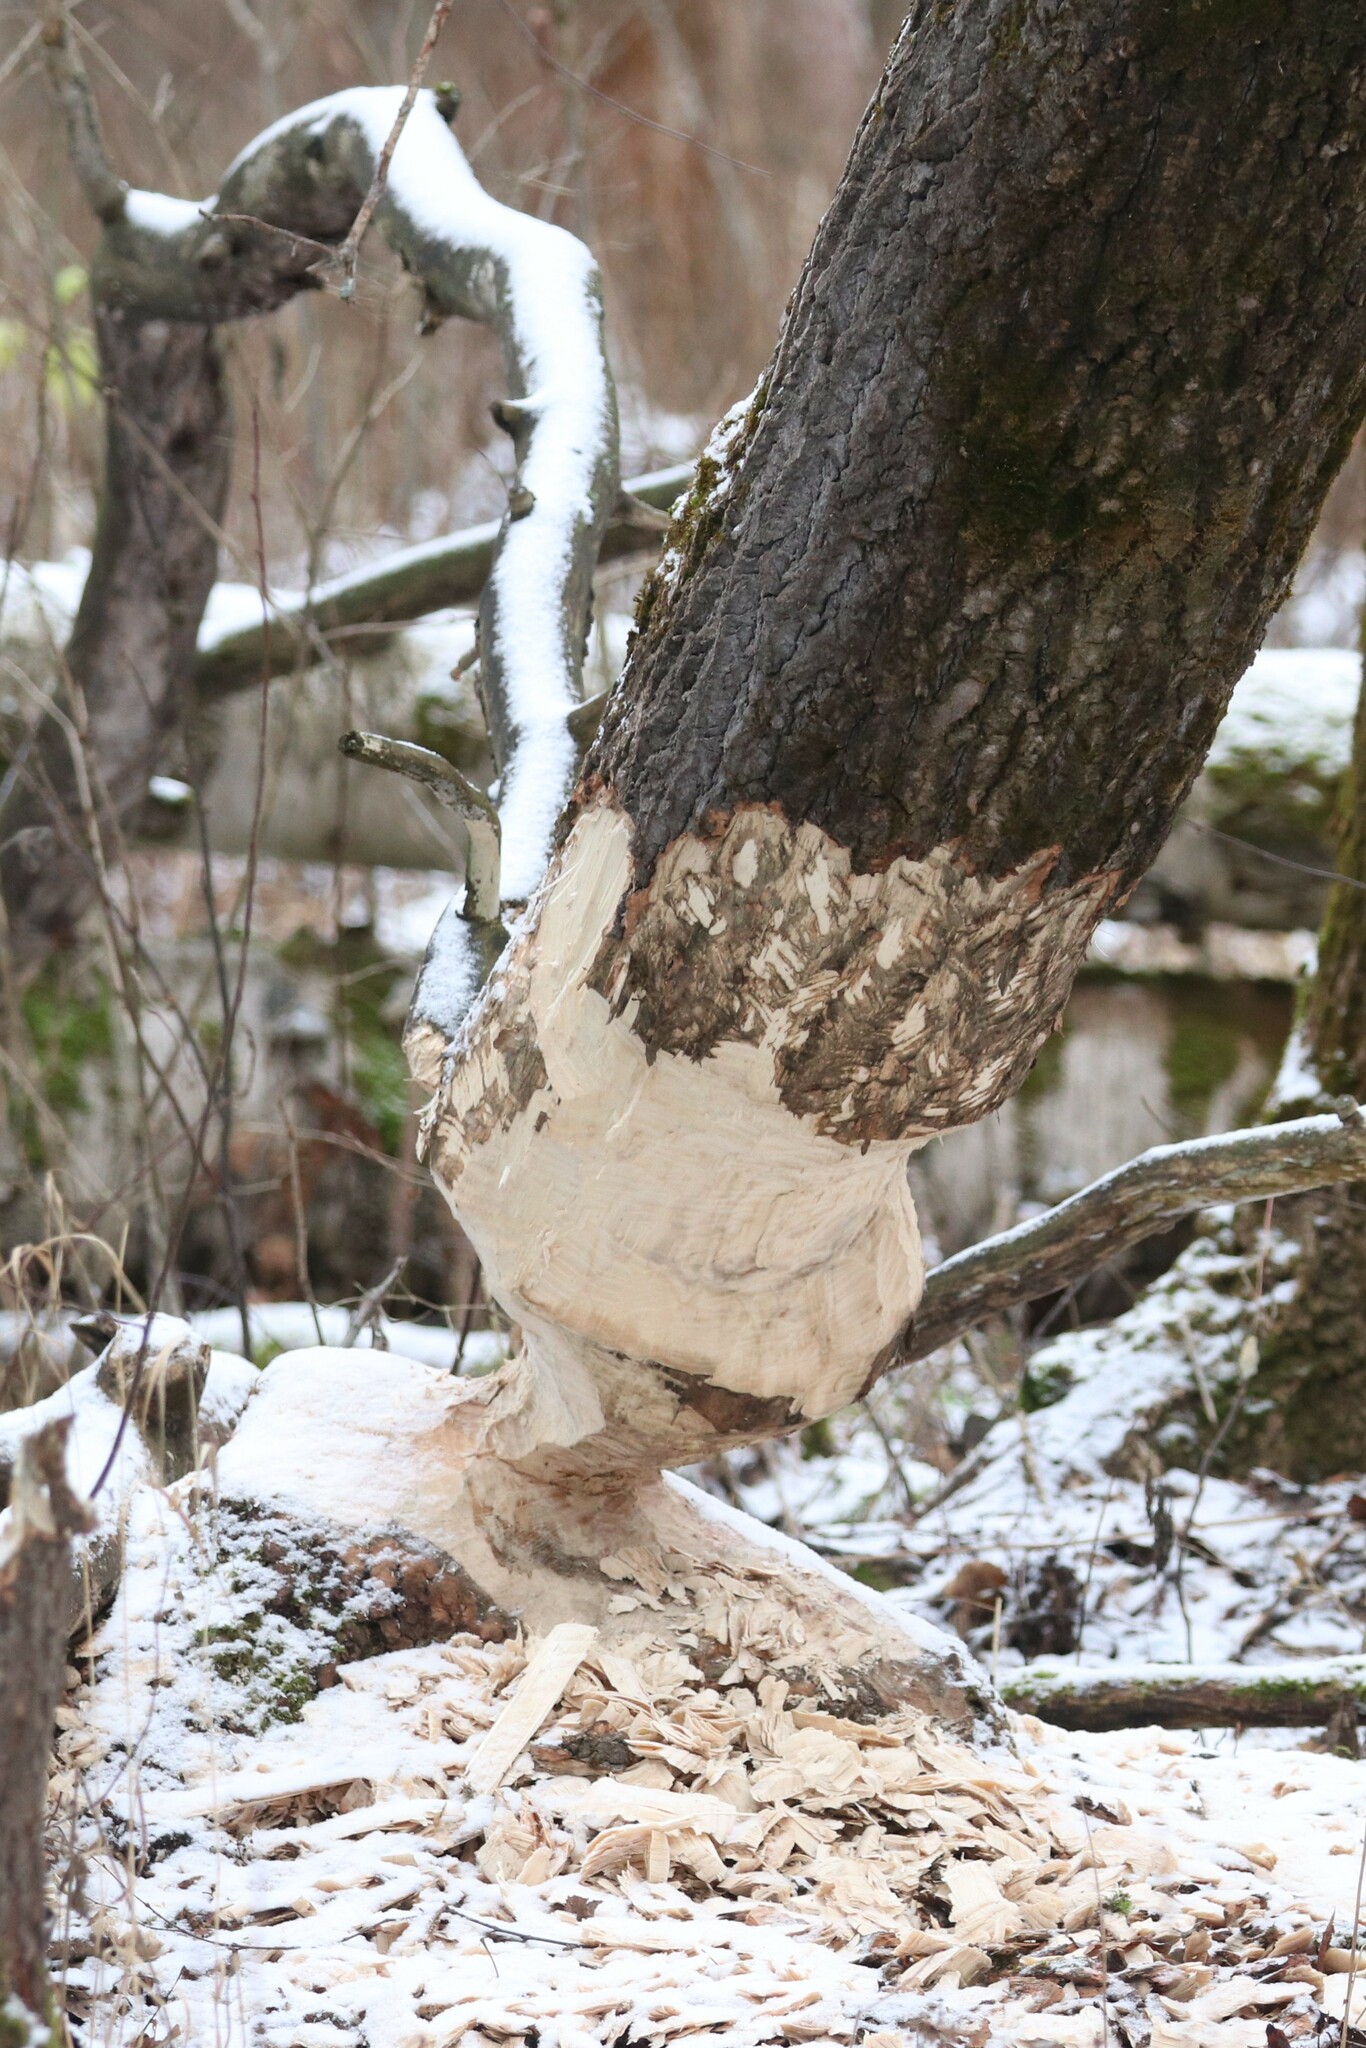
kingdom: Animalia
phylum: Chordata
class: Mammalia
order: Rodentia
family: Castoridae
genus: Castor
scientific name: Castor fiber
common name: Eurasian beaver
